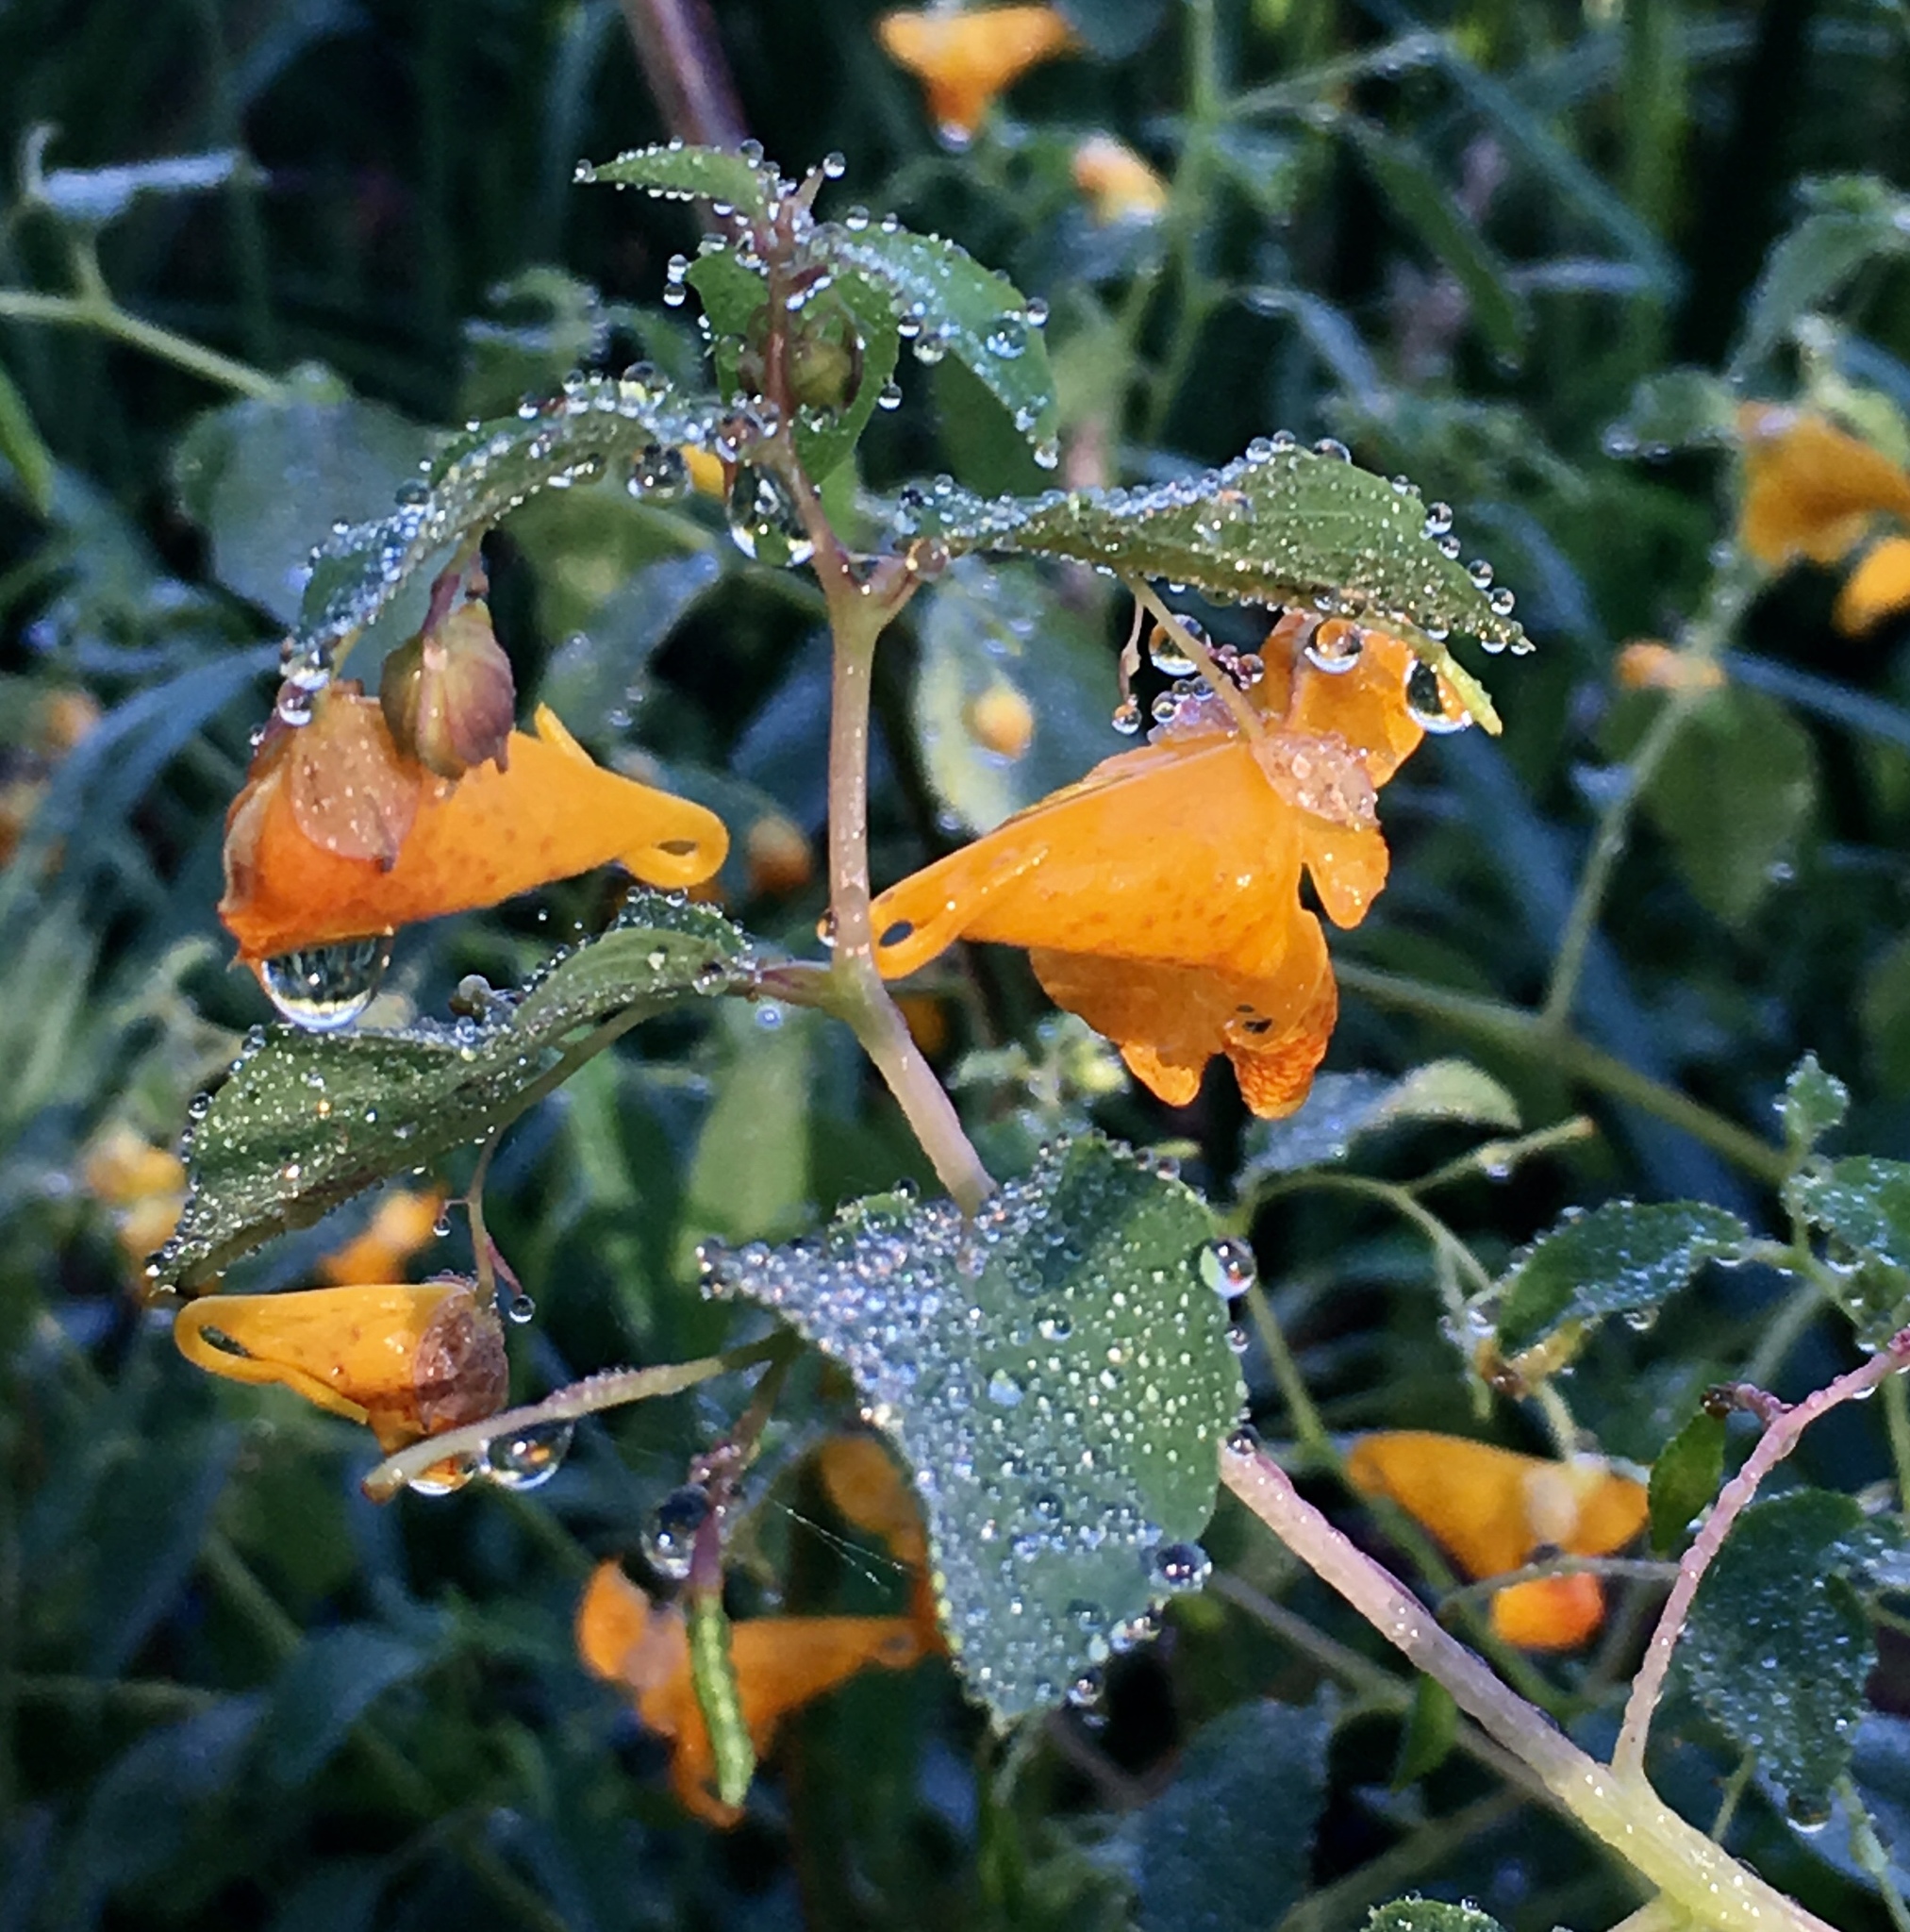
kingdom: Plantae
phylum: Tracheophyta
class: Magnoliopsida
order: Ericales
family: Balsaminaceae
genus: Impatiens
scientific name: Impatiens capensis
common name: Orange balsam
